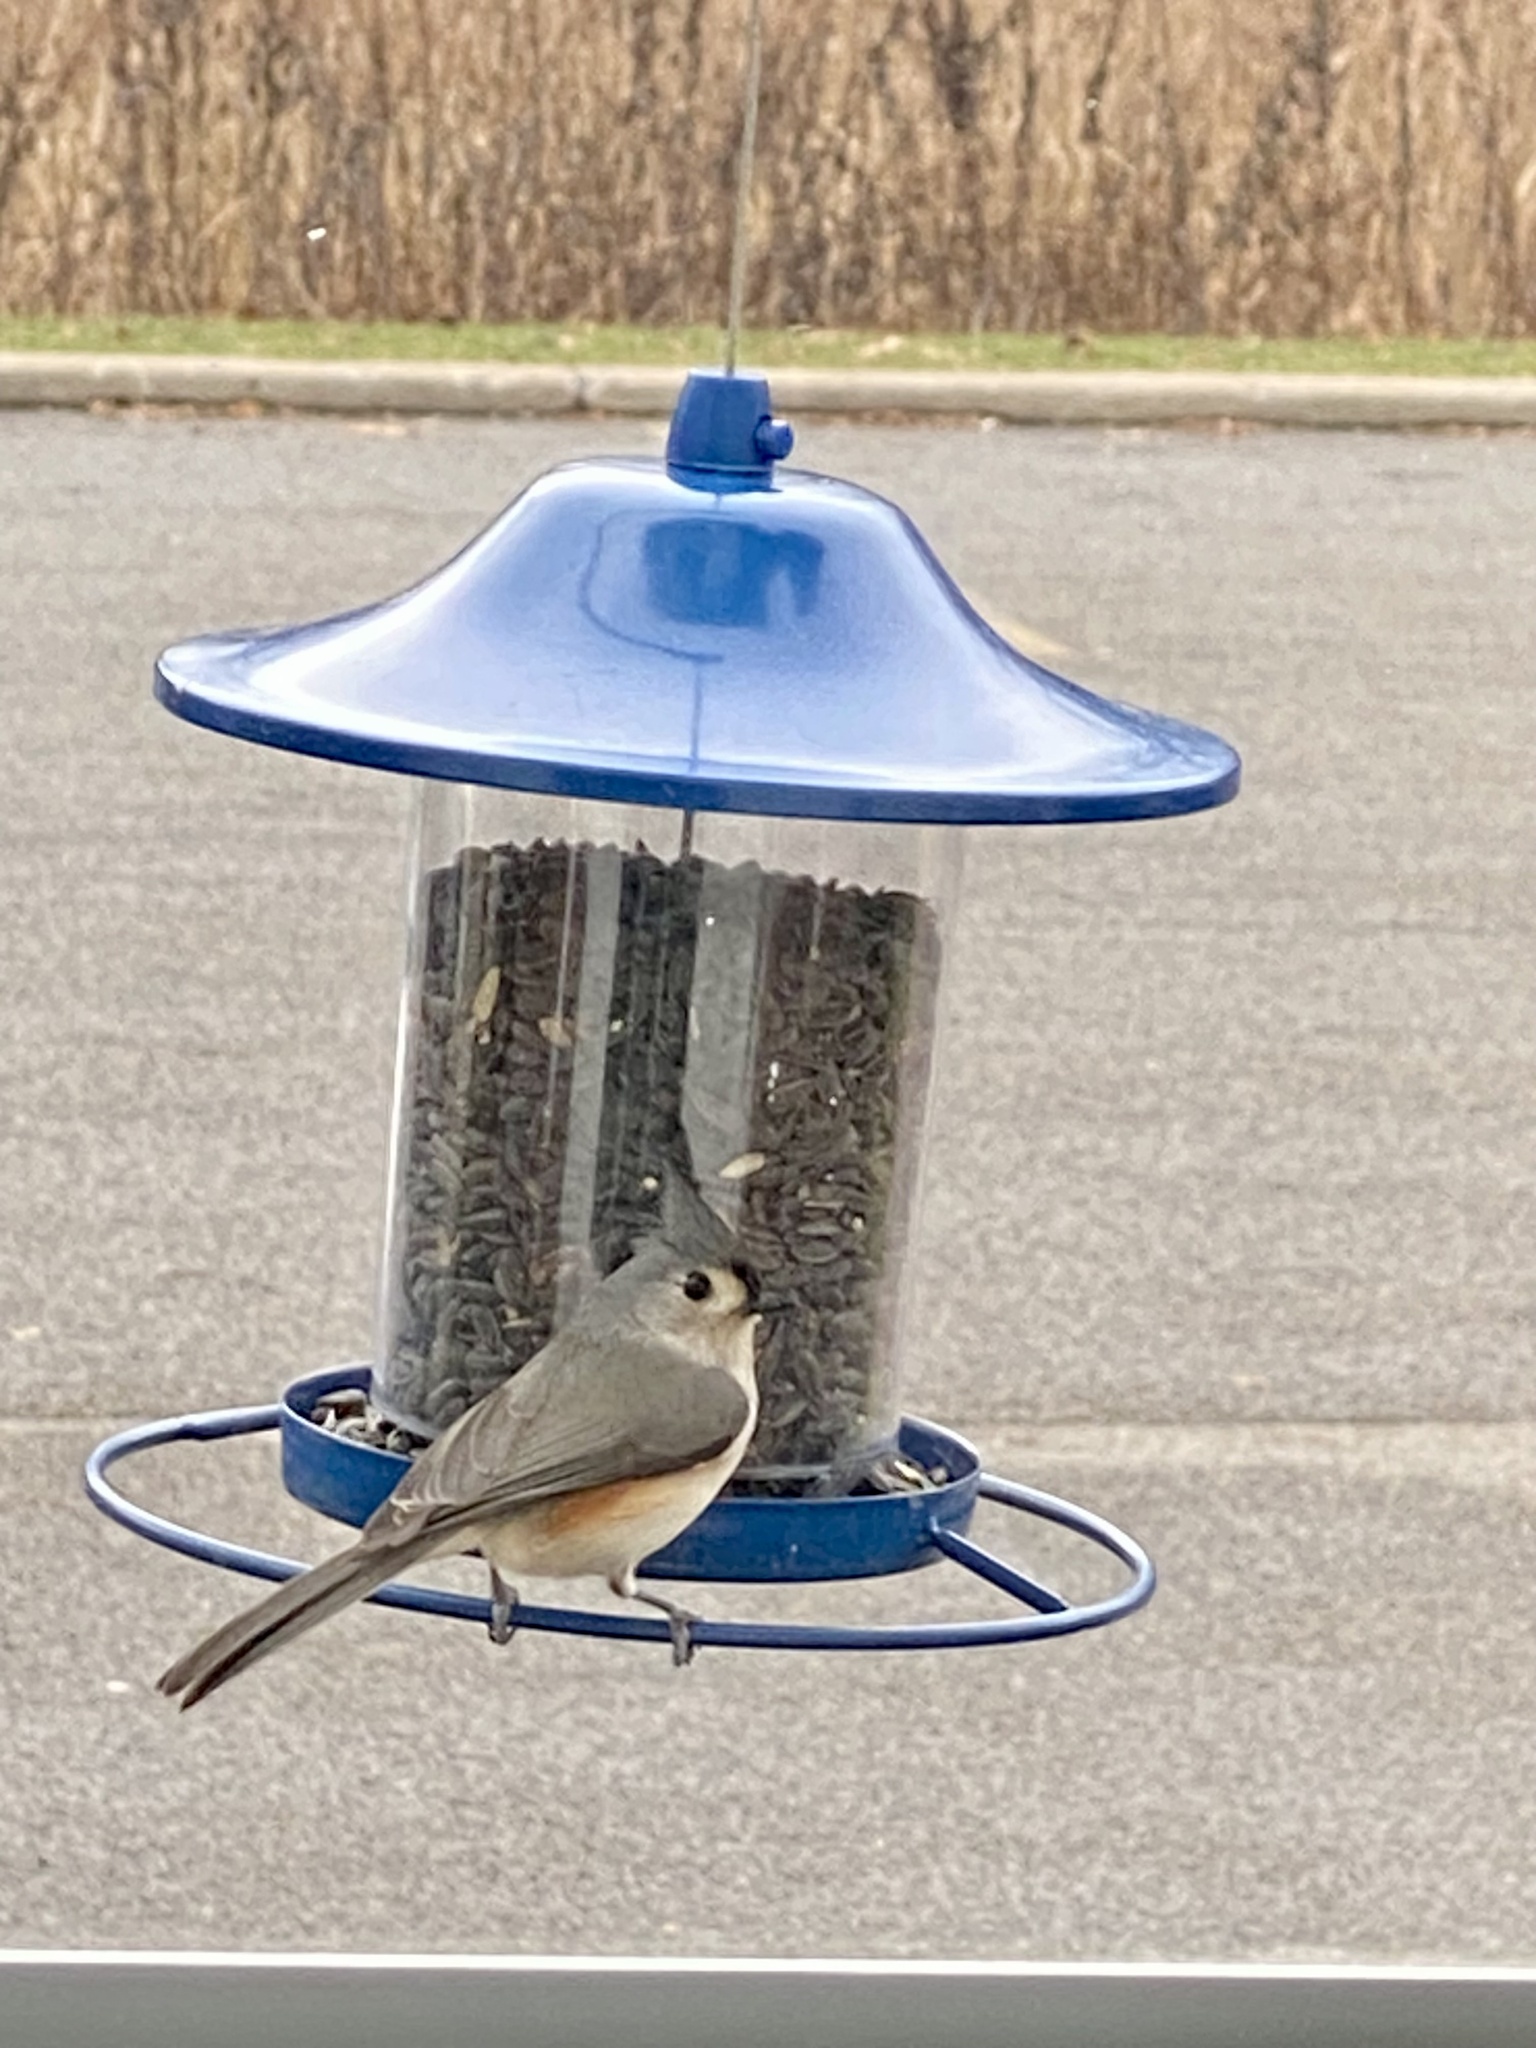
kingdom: Animalia
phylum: Chordata
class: Aves
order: Passeriformes
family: Paridae
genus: Baeolophus
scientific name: Baeolophus bicolor
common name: Tufted titmouse
